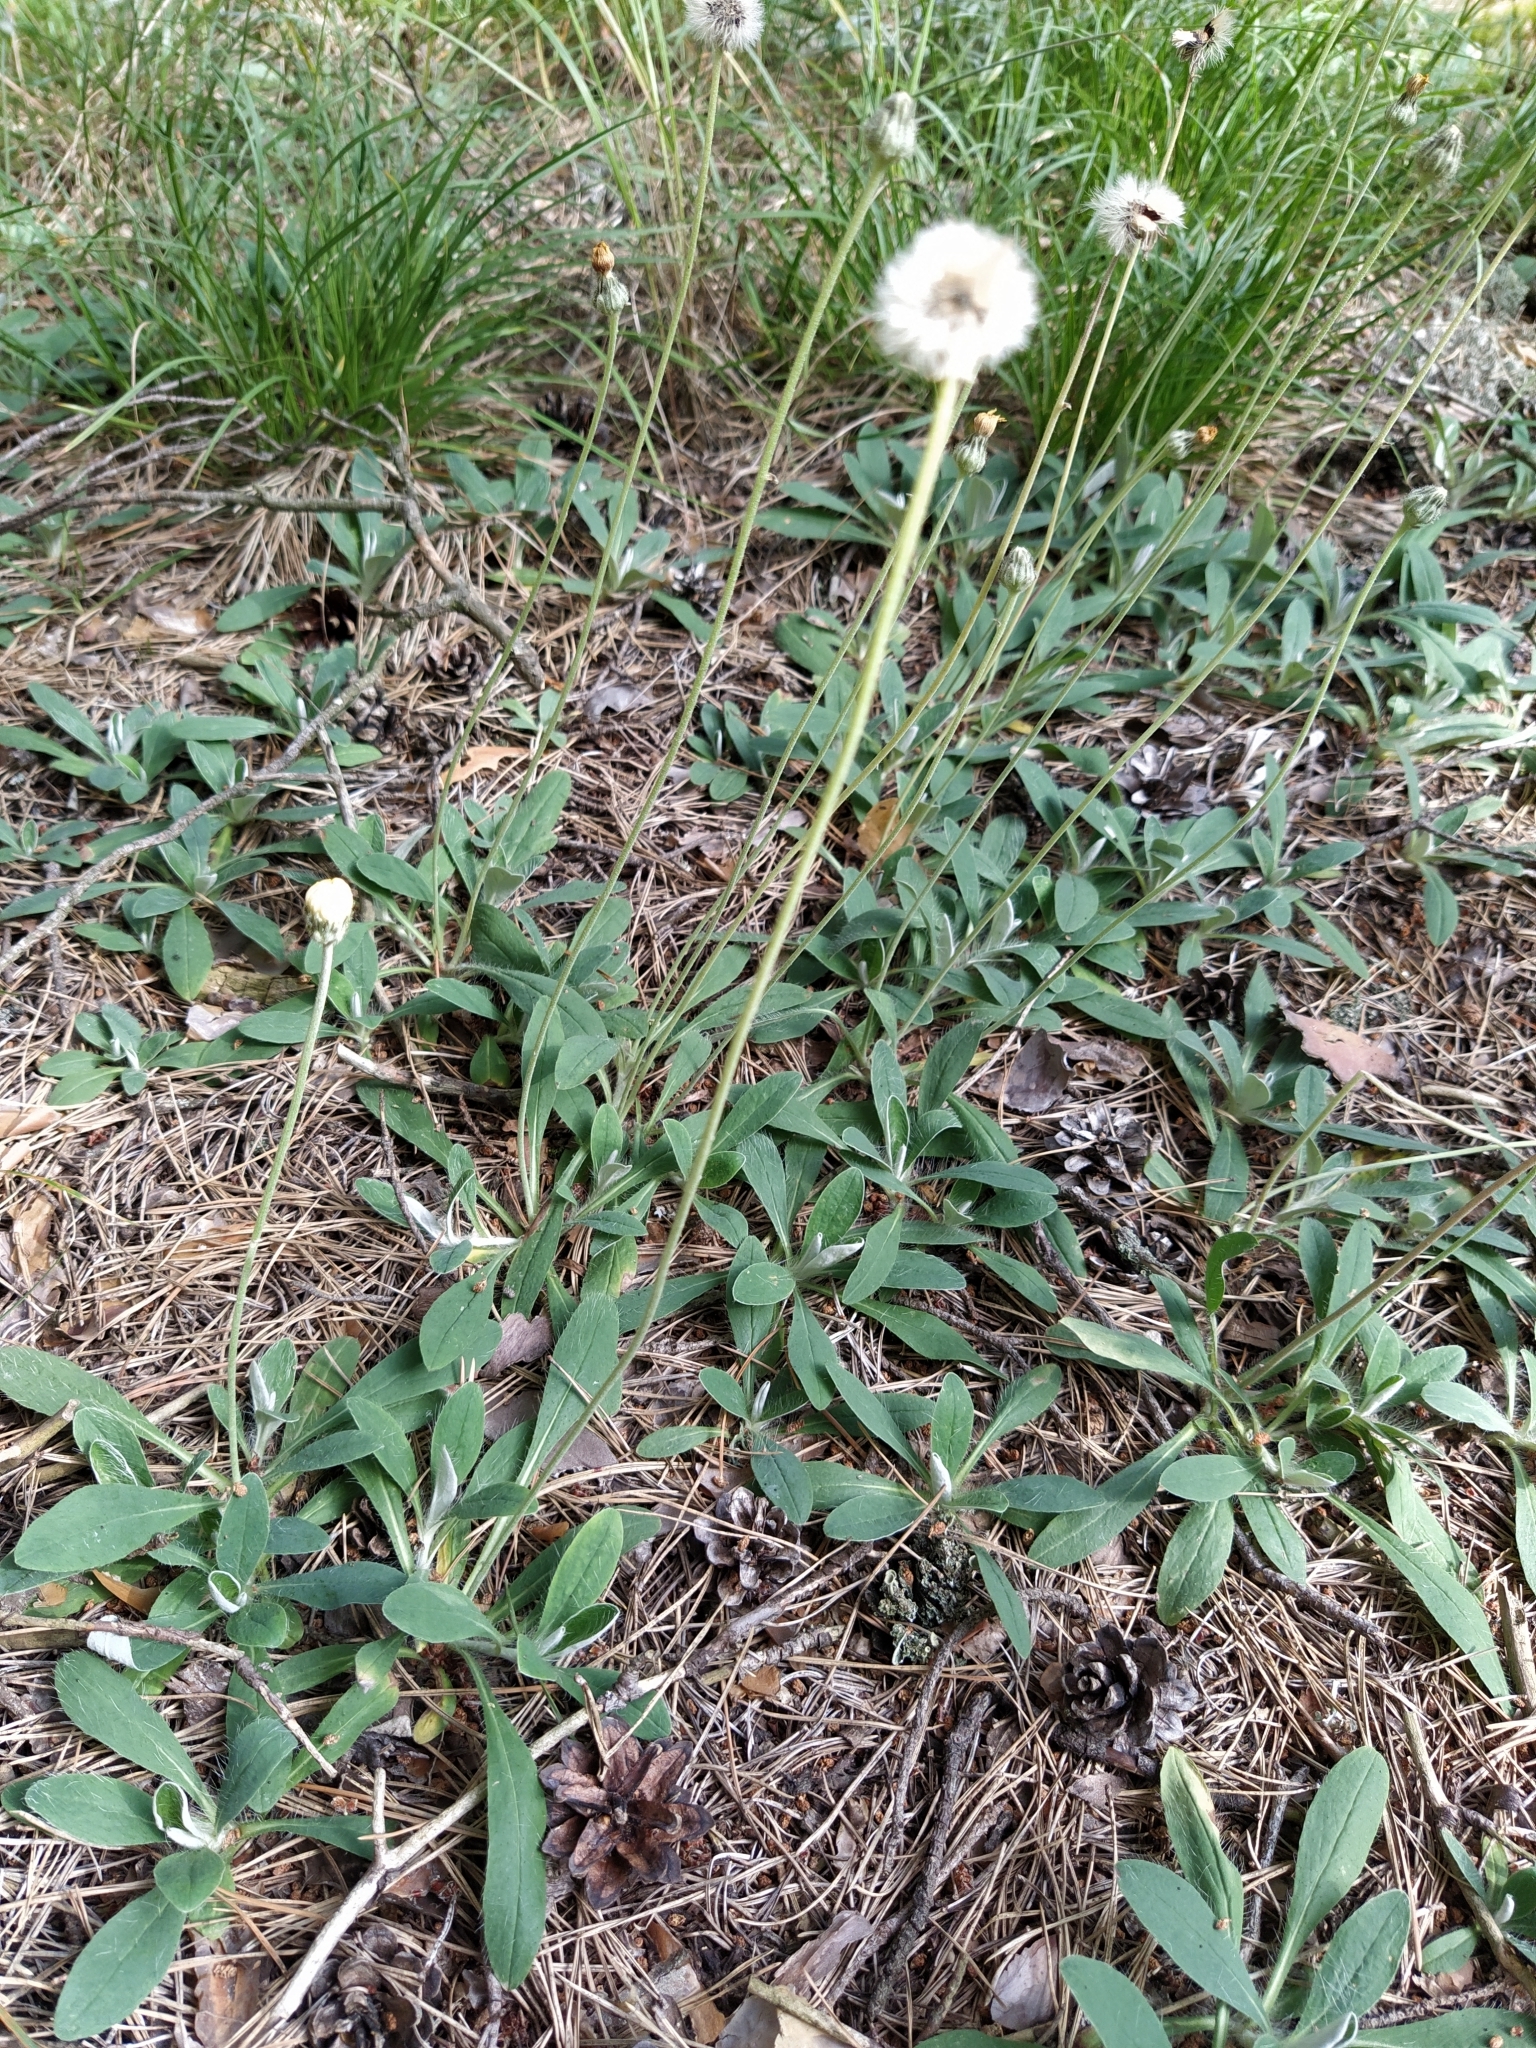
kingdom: Plantae
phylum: Tracheophyta
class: Magnoliopsida
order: Asterales
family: Asteraceae
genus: Pilosella
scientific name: Pilosella officinarum
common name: Mouse-ear hawkweed
